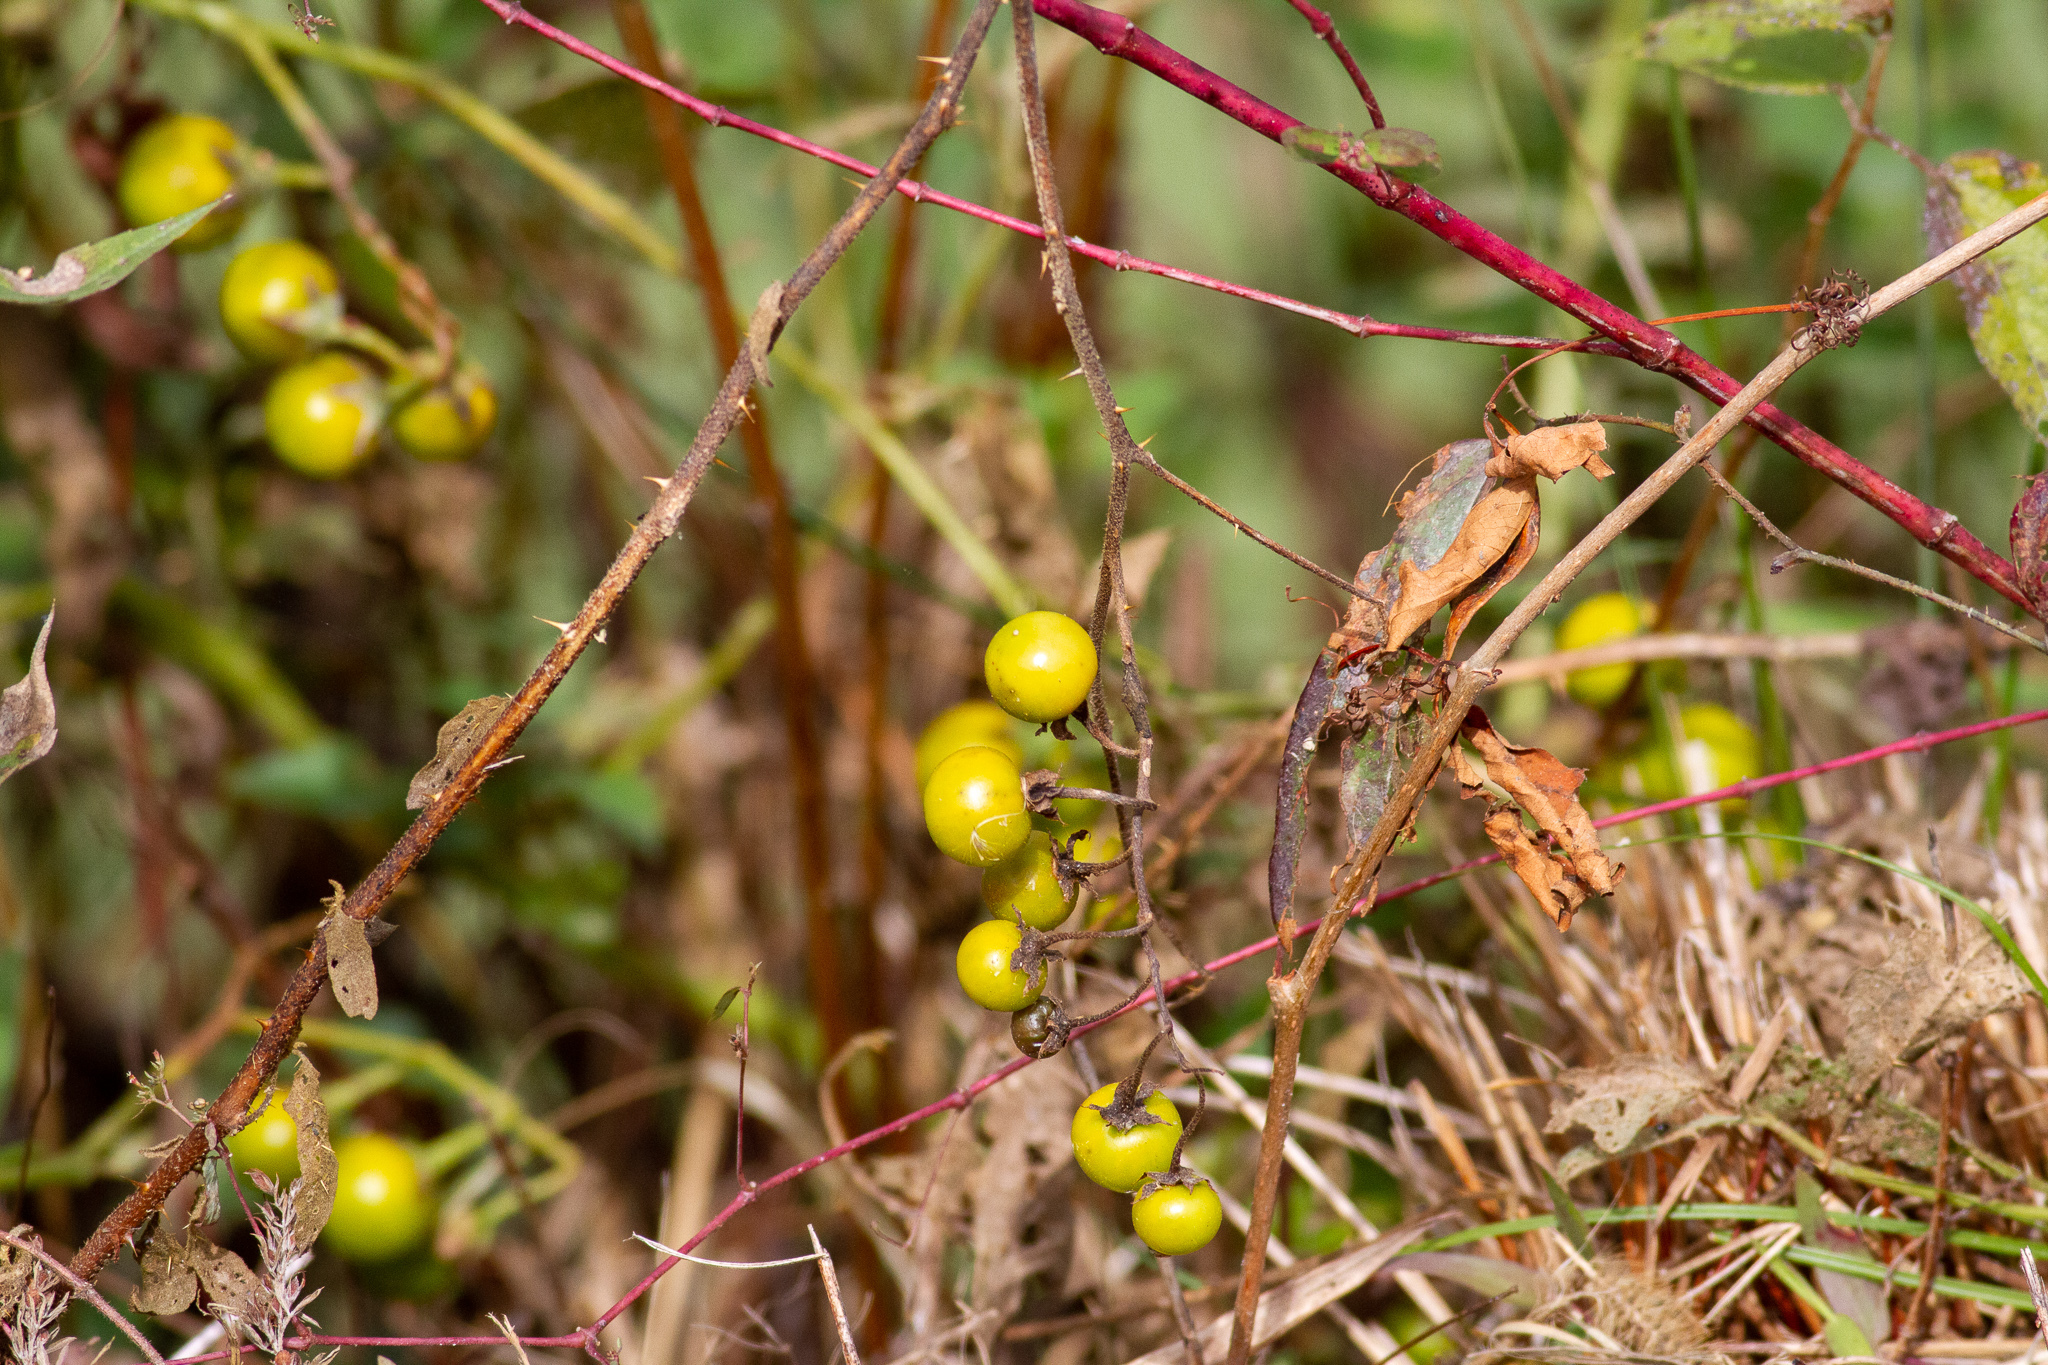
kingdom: Plantae
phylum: Tracheophyta
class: Magnoliopsida
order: Solanales
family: Solanaceae
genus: Solanum
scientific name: Solanum carolinense
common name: Horse-nettle
